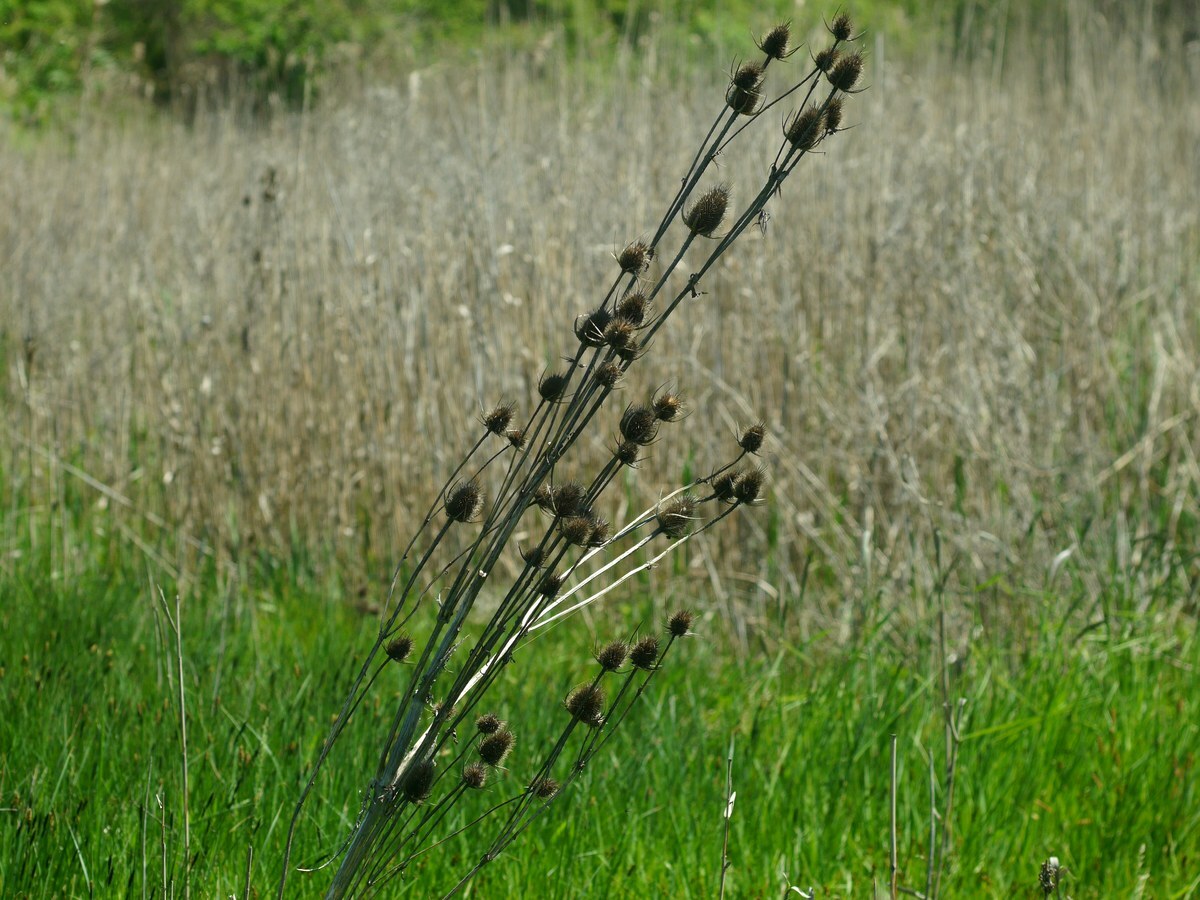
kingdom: Plantae
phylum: Tracheophyta
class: Magnoliopsida
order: Dipsacales
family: Caprifoliaceae
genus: Dipsacus
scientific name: Dipsacus laciniatus
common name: Cut-leaved teasel
